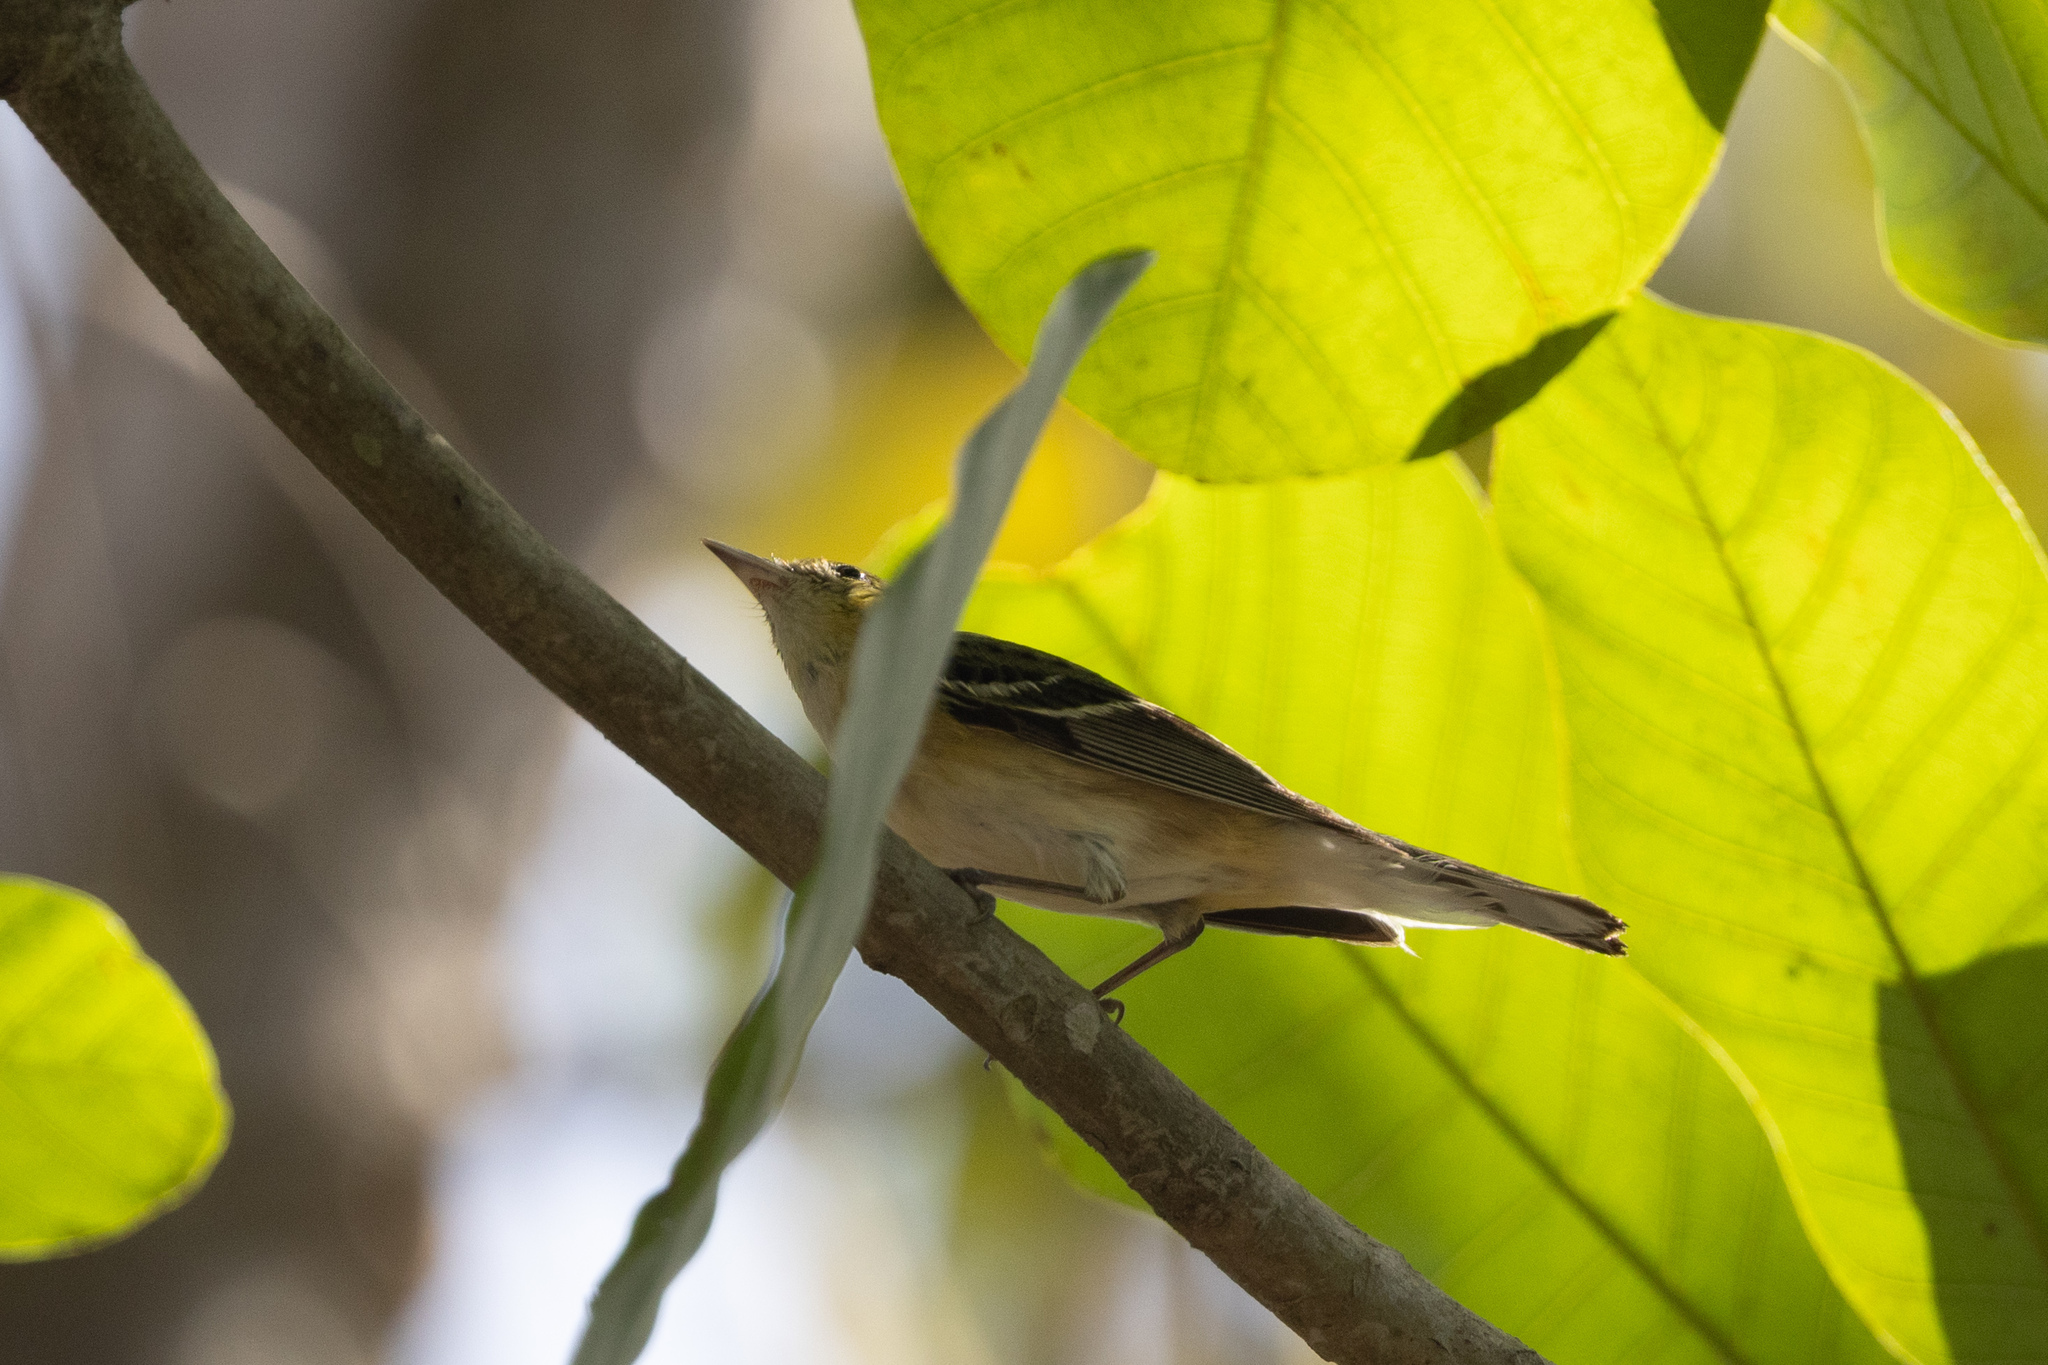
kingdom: Animalia
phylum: Chordata
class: Aves
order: Passeriformes
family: Parulidae
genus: Setophaga
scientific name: Setophaga castanea
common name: Bay-breasted warbler
